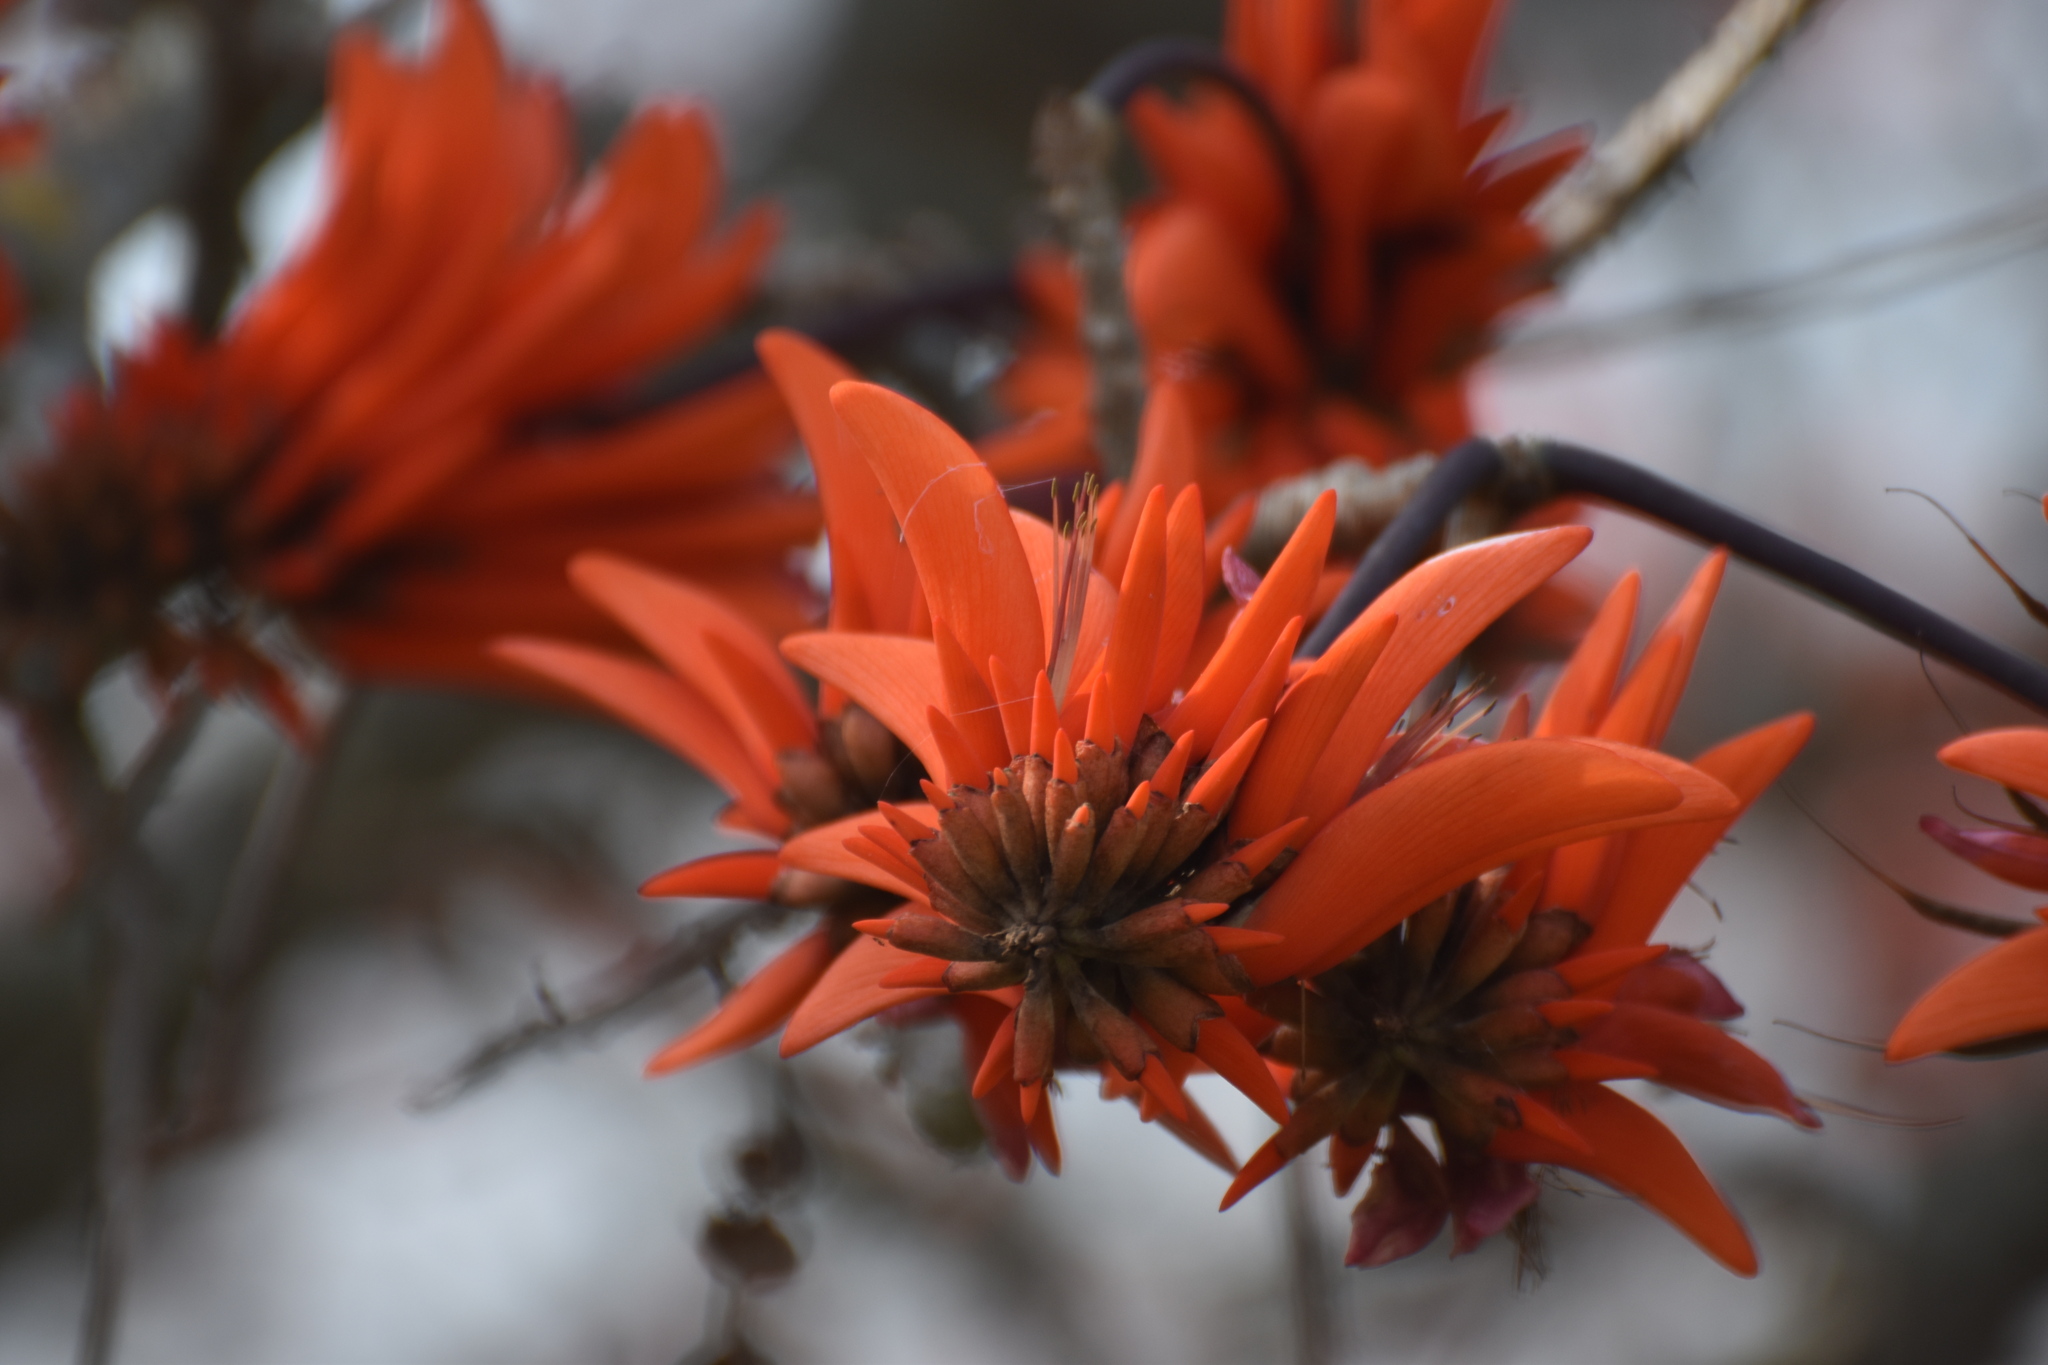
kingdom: Plantae
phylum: Tracheophyta
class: Magnoliopsida
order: Fabales
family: Fabaceae
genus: Erythrina
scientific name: Erythrina lysistemon
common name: Common coral tree
